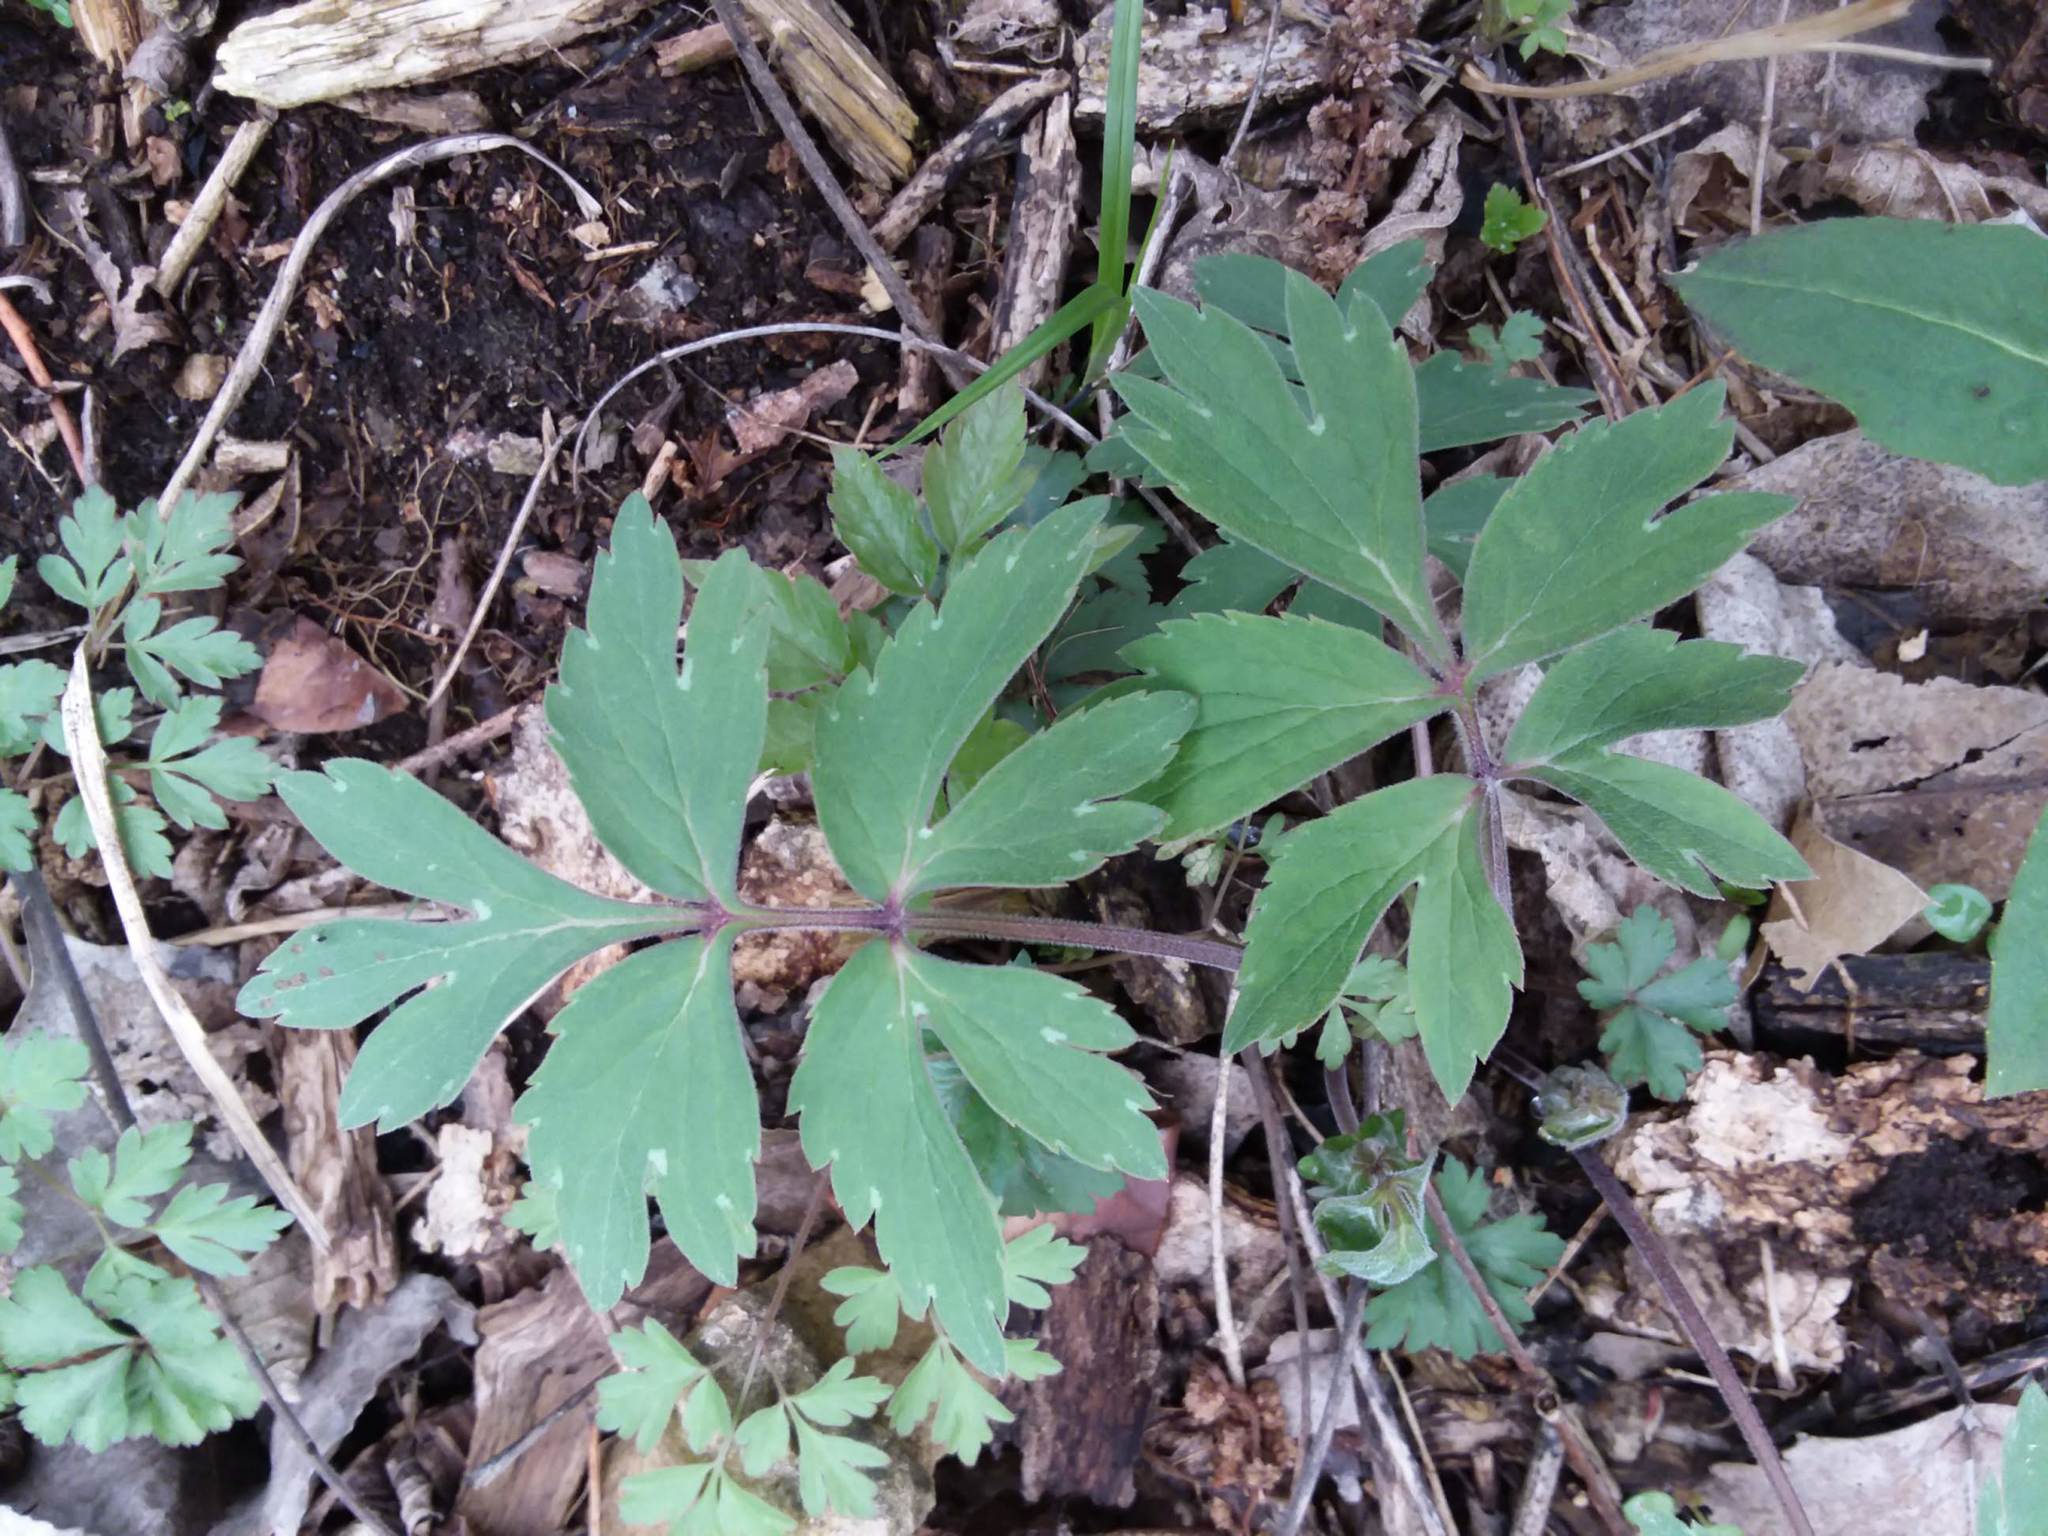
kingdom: Plantae
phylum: Tracheophyta
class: Magnoliopsida
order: Boraginales
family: Hydrophyllaceae
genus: Hydrophyllum
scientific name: Hydrophyllum virginianum
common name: Virginia waterleaf
